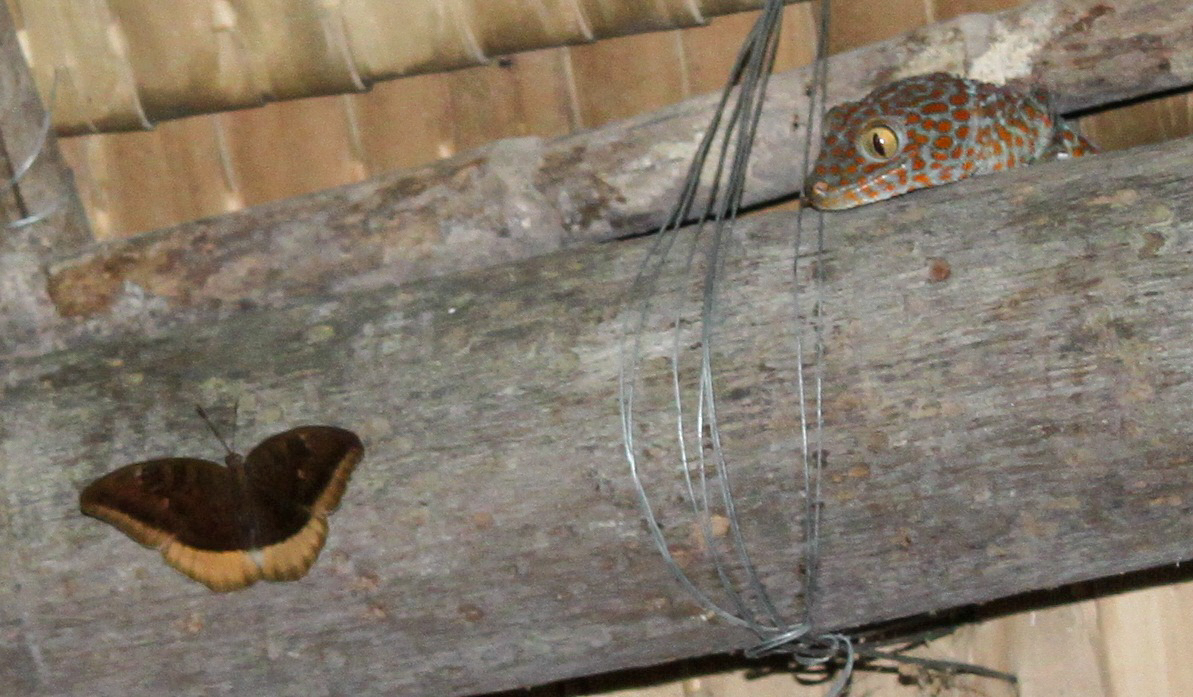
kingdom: Animalia
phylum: Chordata
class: Squamata
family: Gekkonidae
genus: Gekko
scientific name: Gekko gecko
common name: Tokay gecko
